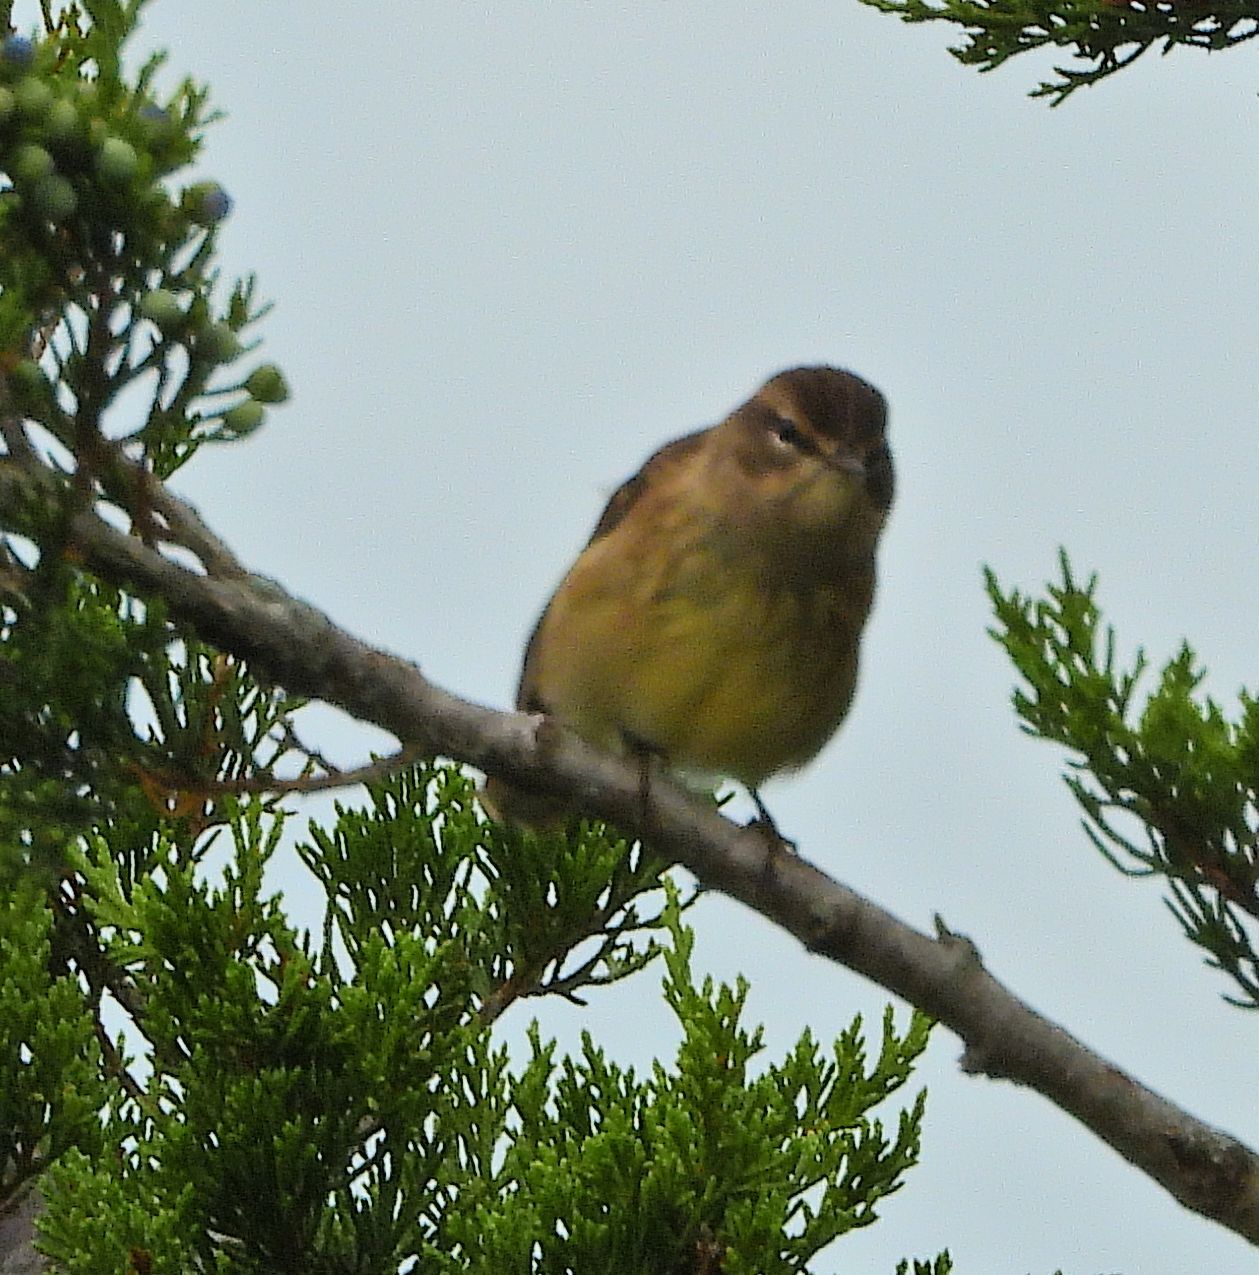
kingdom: Animalia
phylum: Chordata
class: Aves
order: Passeriformes
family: Parulidae
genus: Setophaga
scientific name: Setophaga palmarum
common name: Palm warbler
